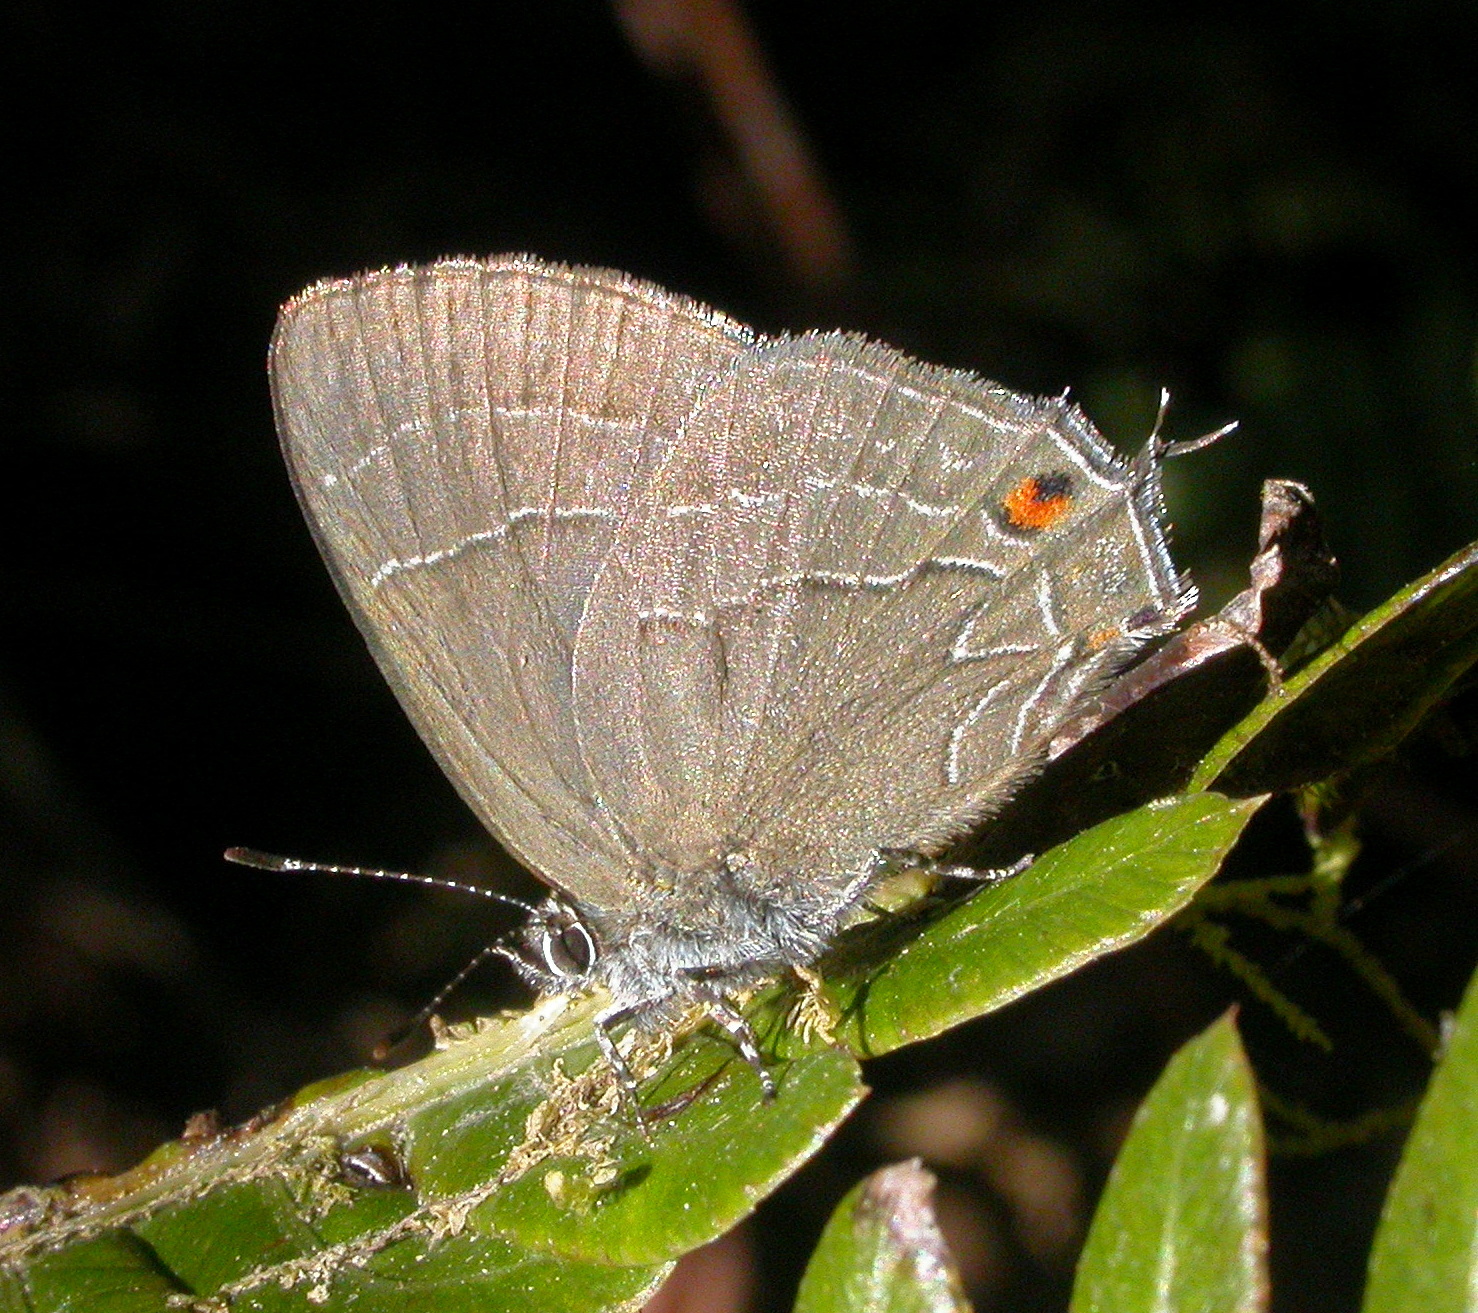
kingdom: Animalia
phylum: Arthropoda
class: Insecta
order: Lepidoptera
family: Lycaenidae
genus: Lathecla
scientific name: Lathecla
